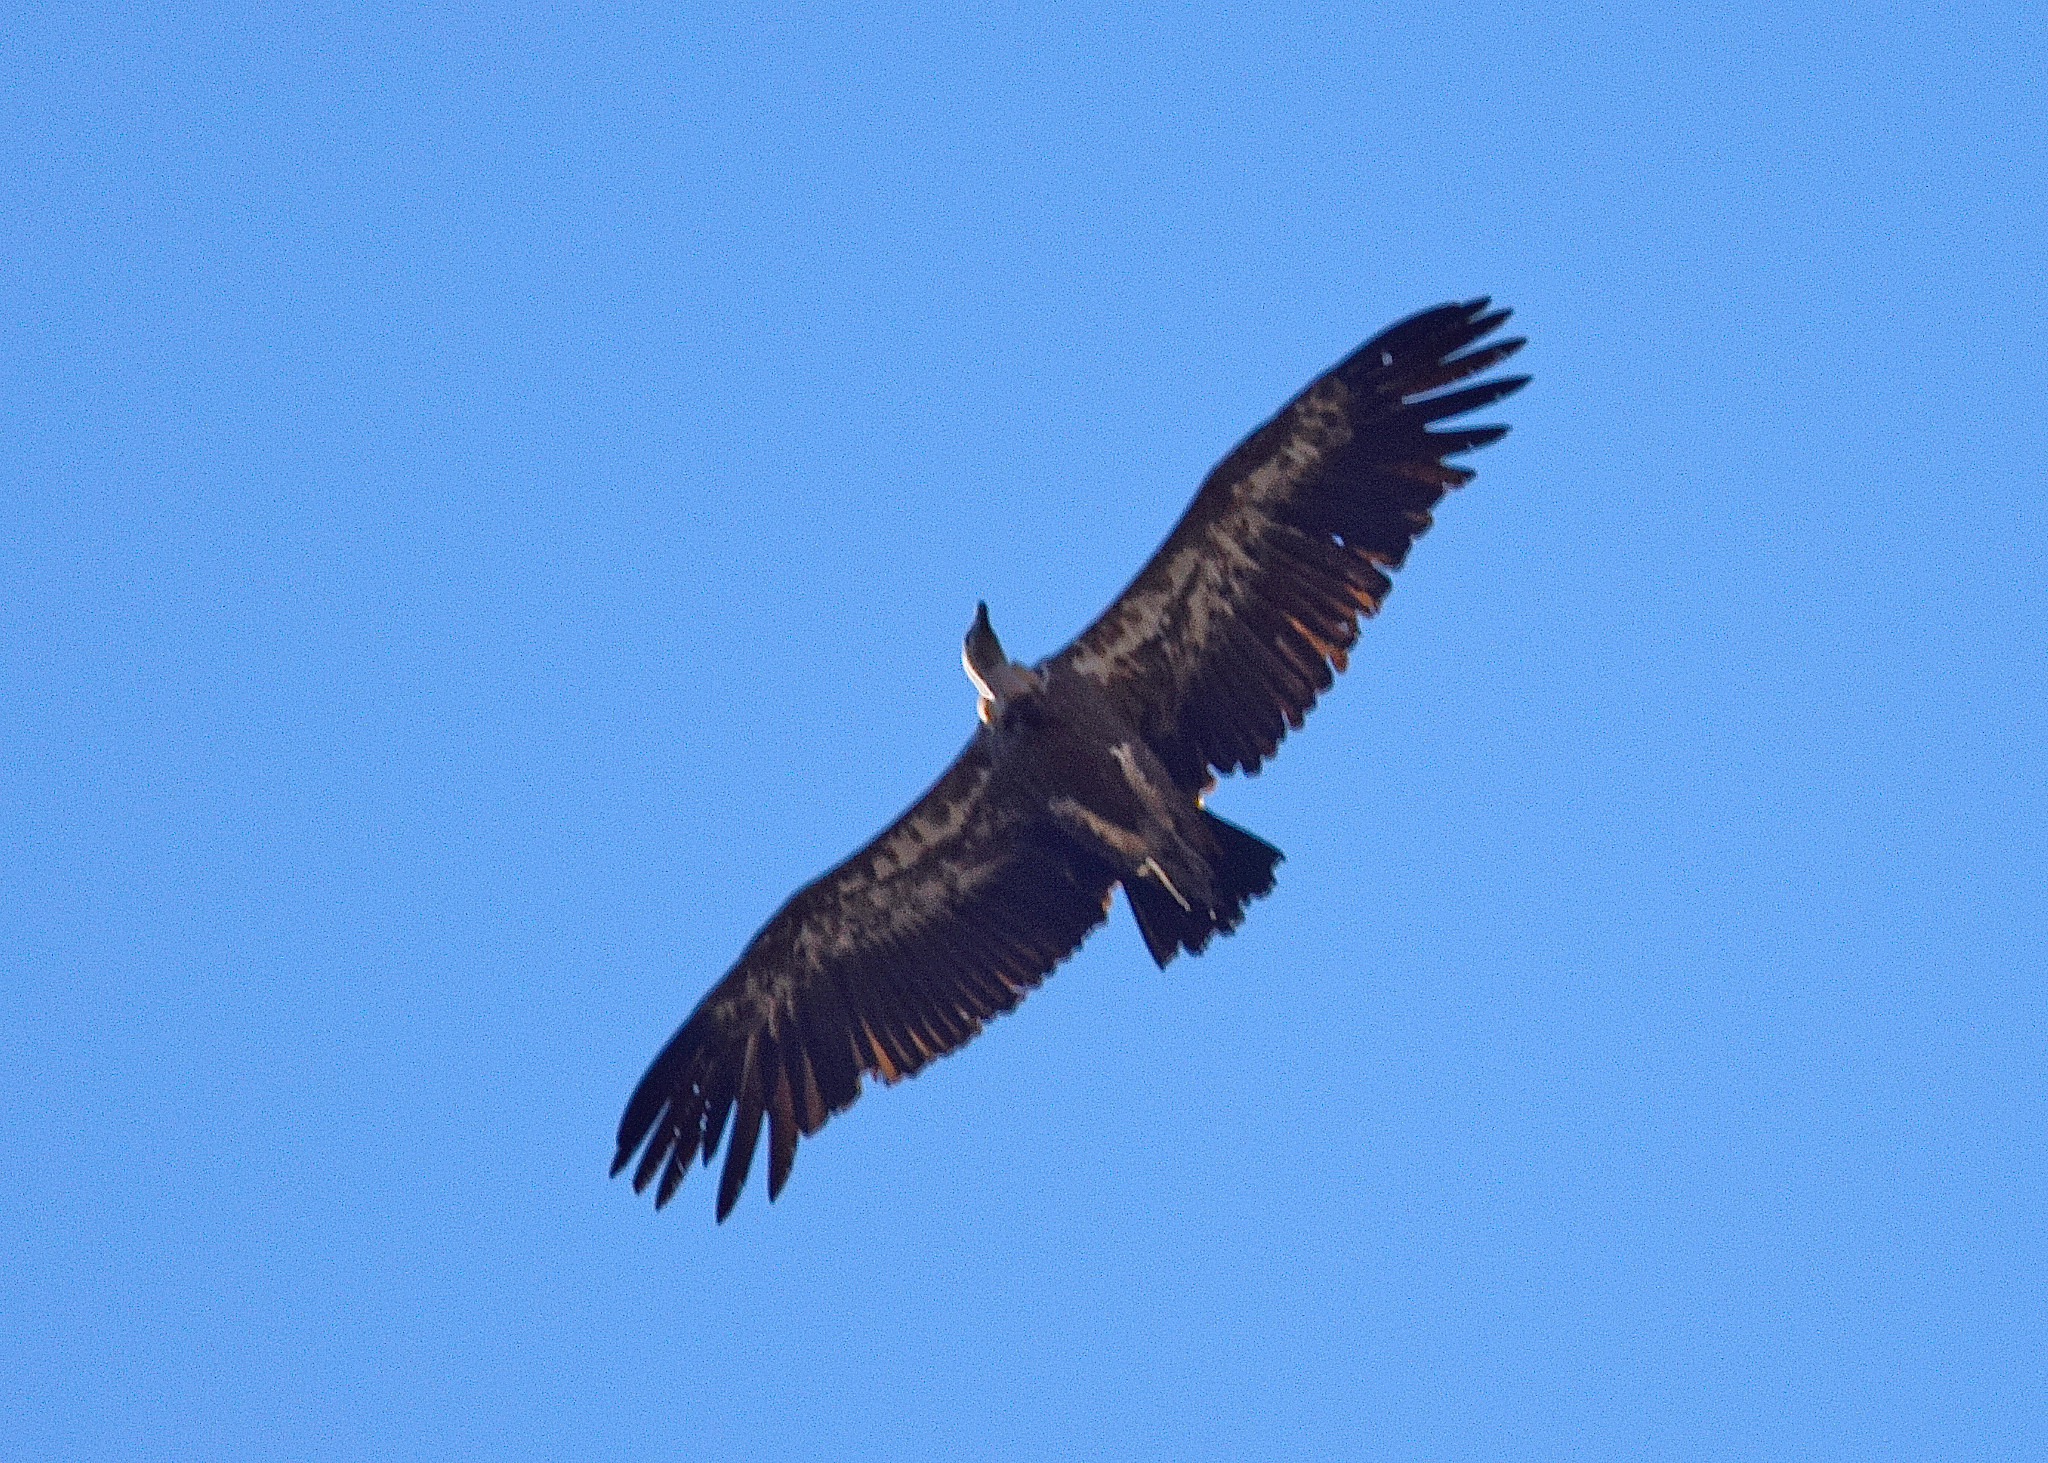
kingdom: Animalia
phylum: Chordata
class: Aves
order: Accipitriformes
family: Accipitridae
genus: Gyps
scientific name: Gyps fulvus
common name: Griffon vulture
